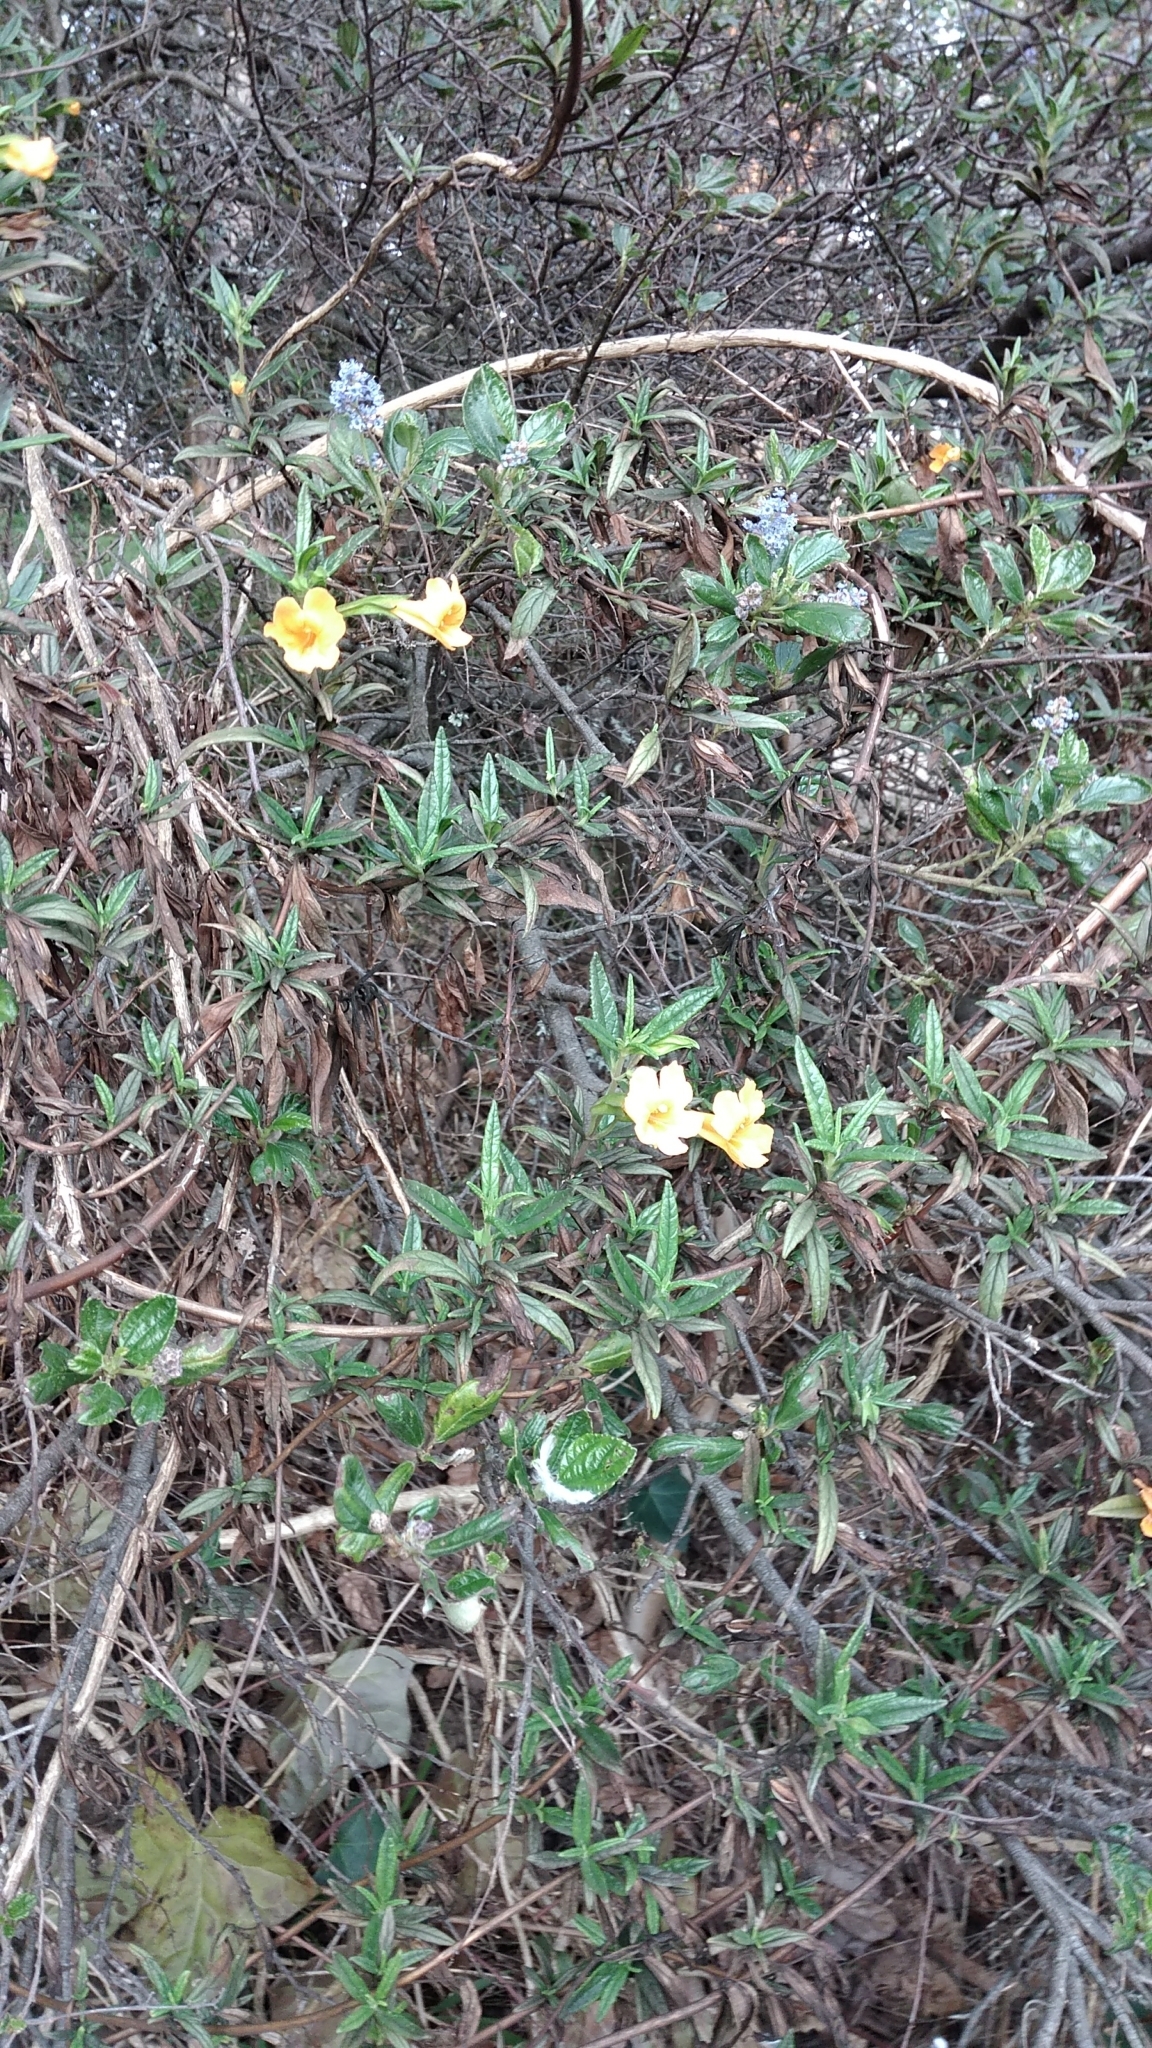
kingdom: Plantae
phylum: Tracheophyta
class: Magnoliopsida
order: Lamiales
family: Phrymaceae
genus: Diplacus
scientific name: Diplacus aurantiacus
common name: Bush monkey-flower
